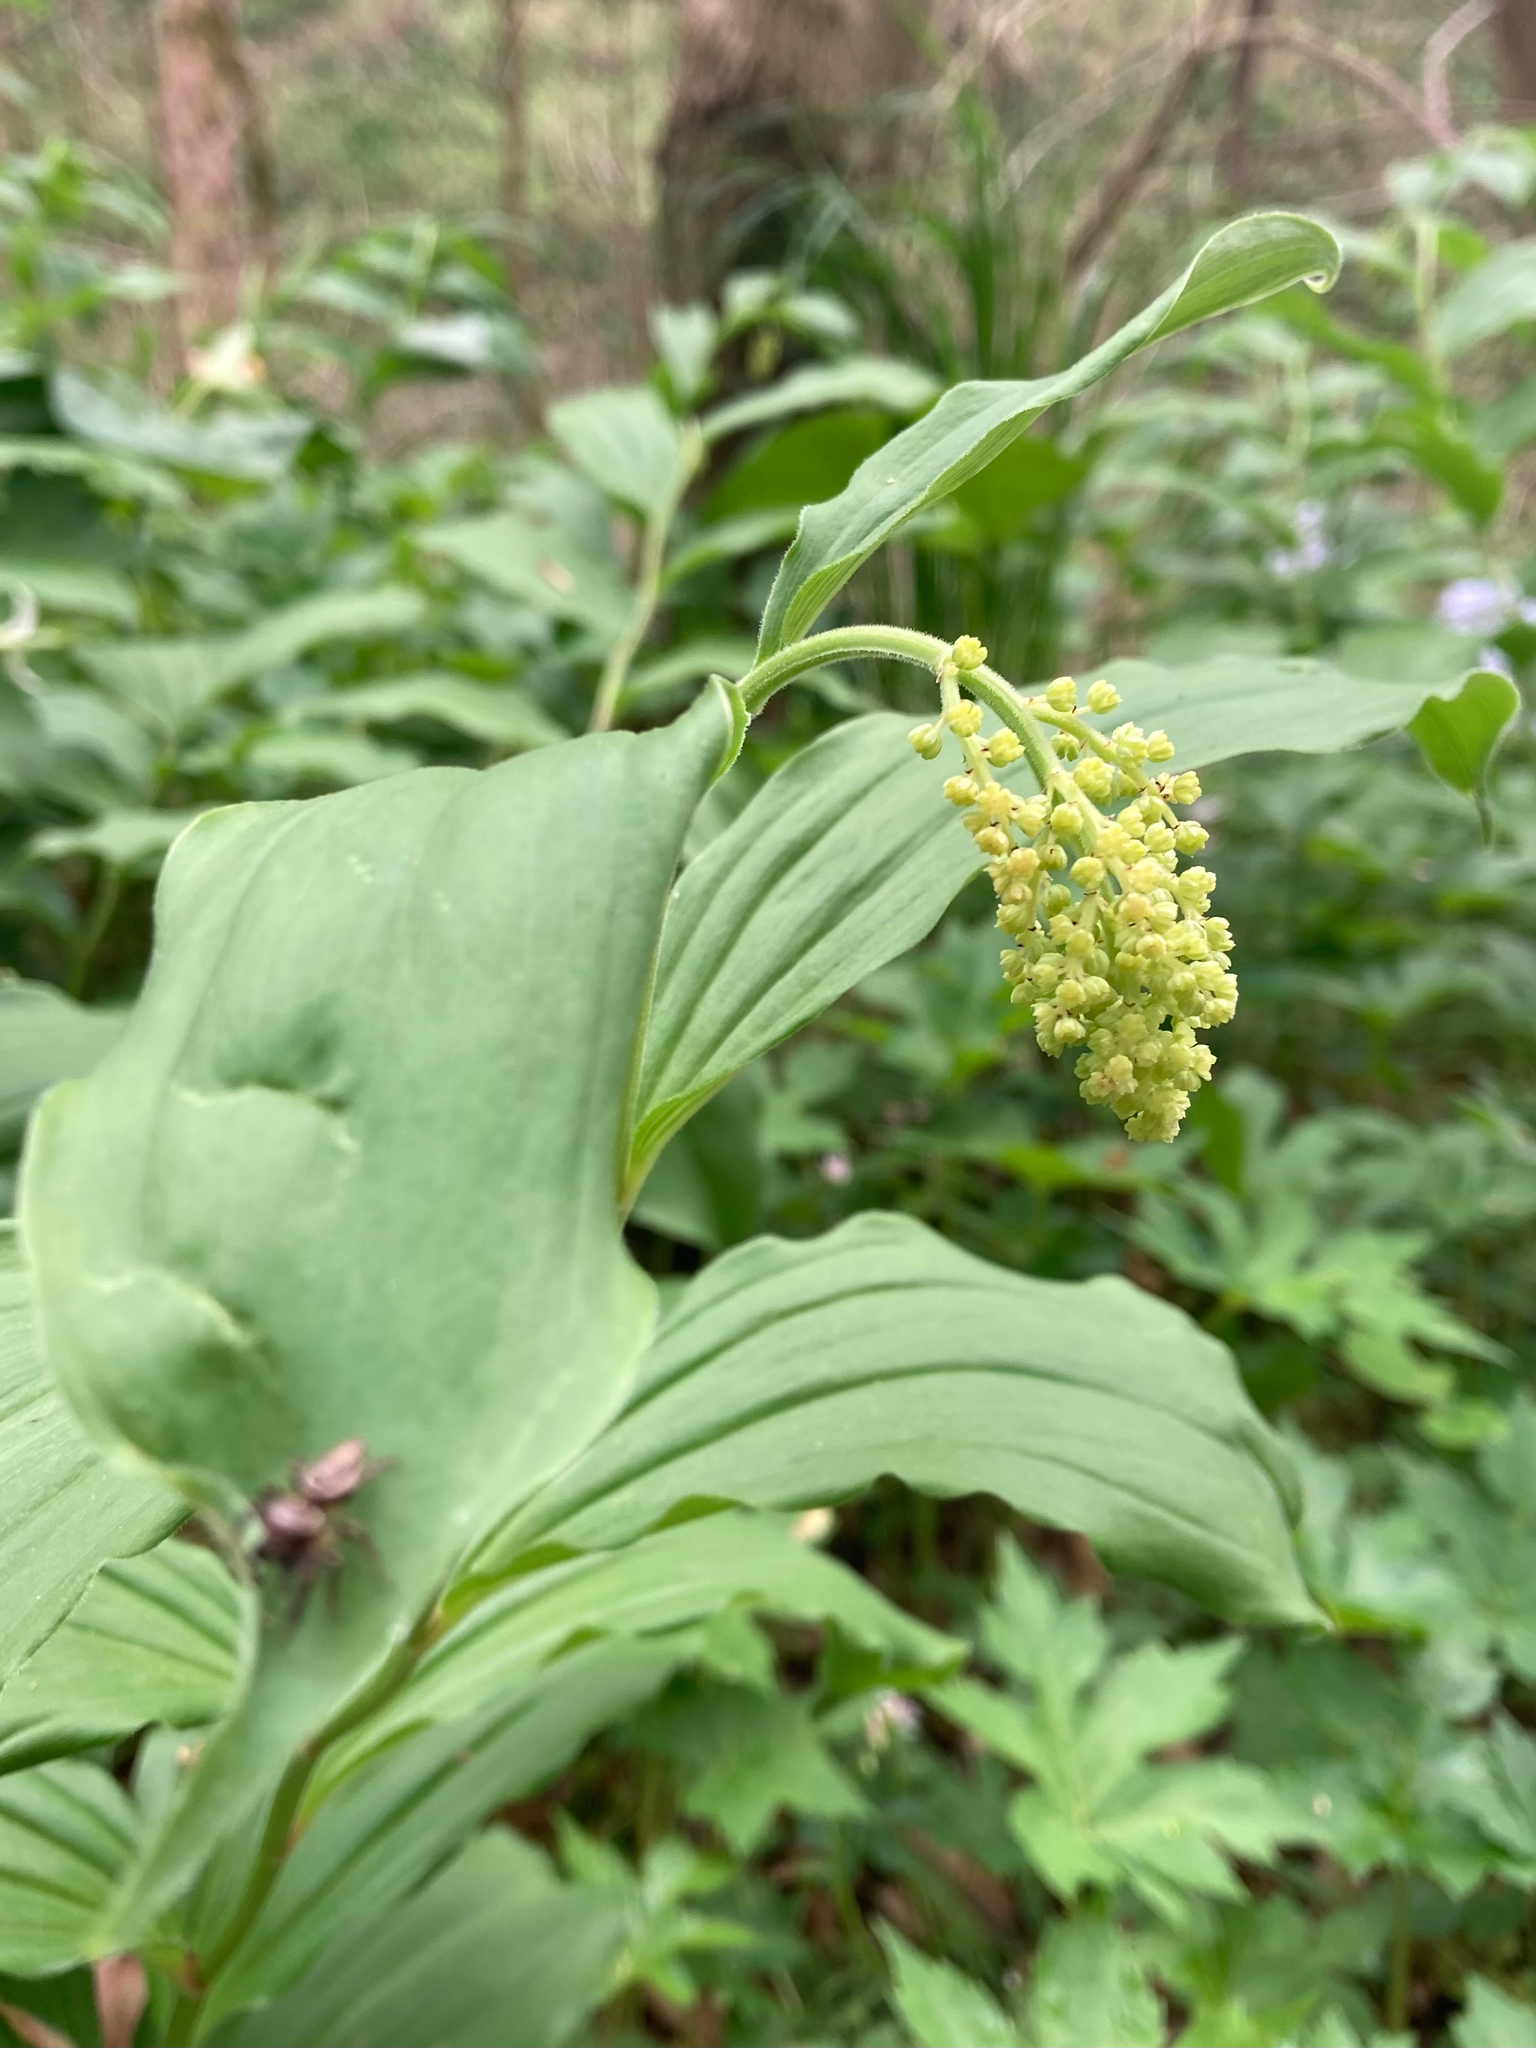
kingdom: Plantae
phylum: Tracheophyta
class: Liliopsida
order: Asparagales
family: Asparagaceae
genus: Maianthemum
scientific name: Maianthemum racemosum
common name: False spikenard
